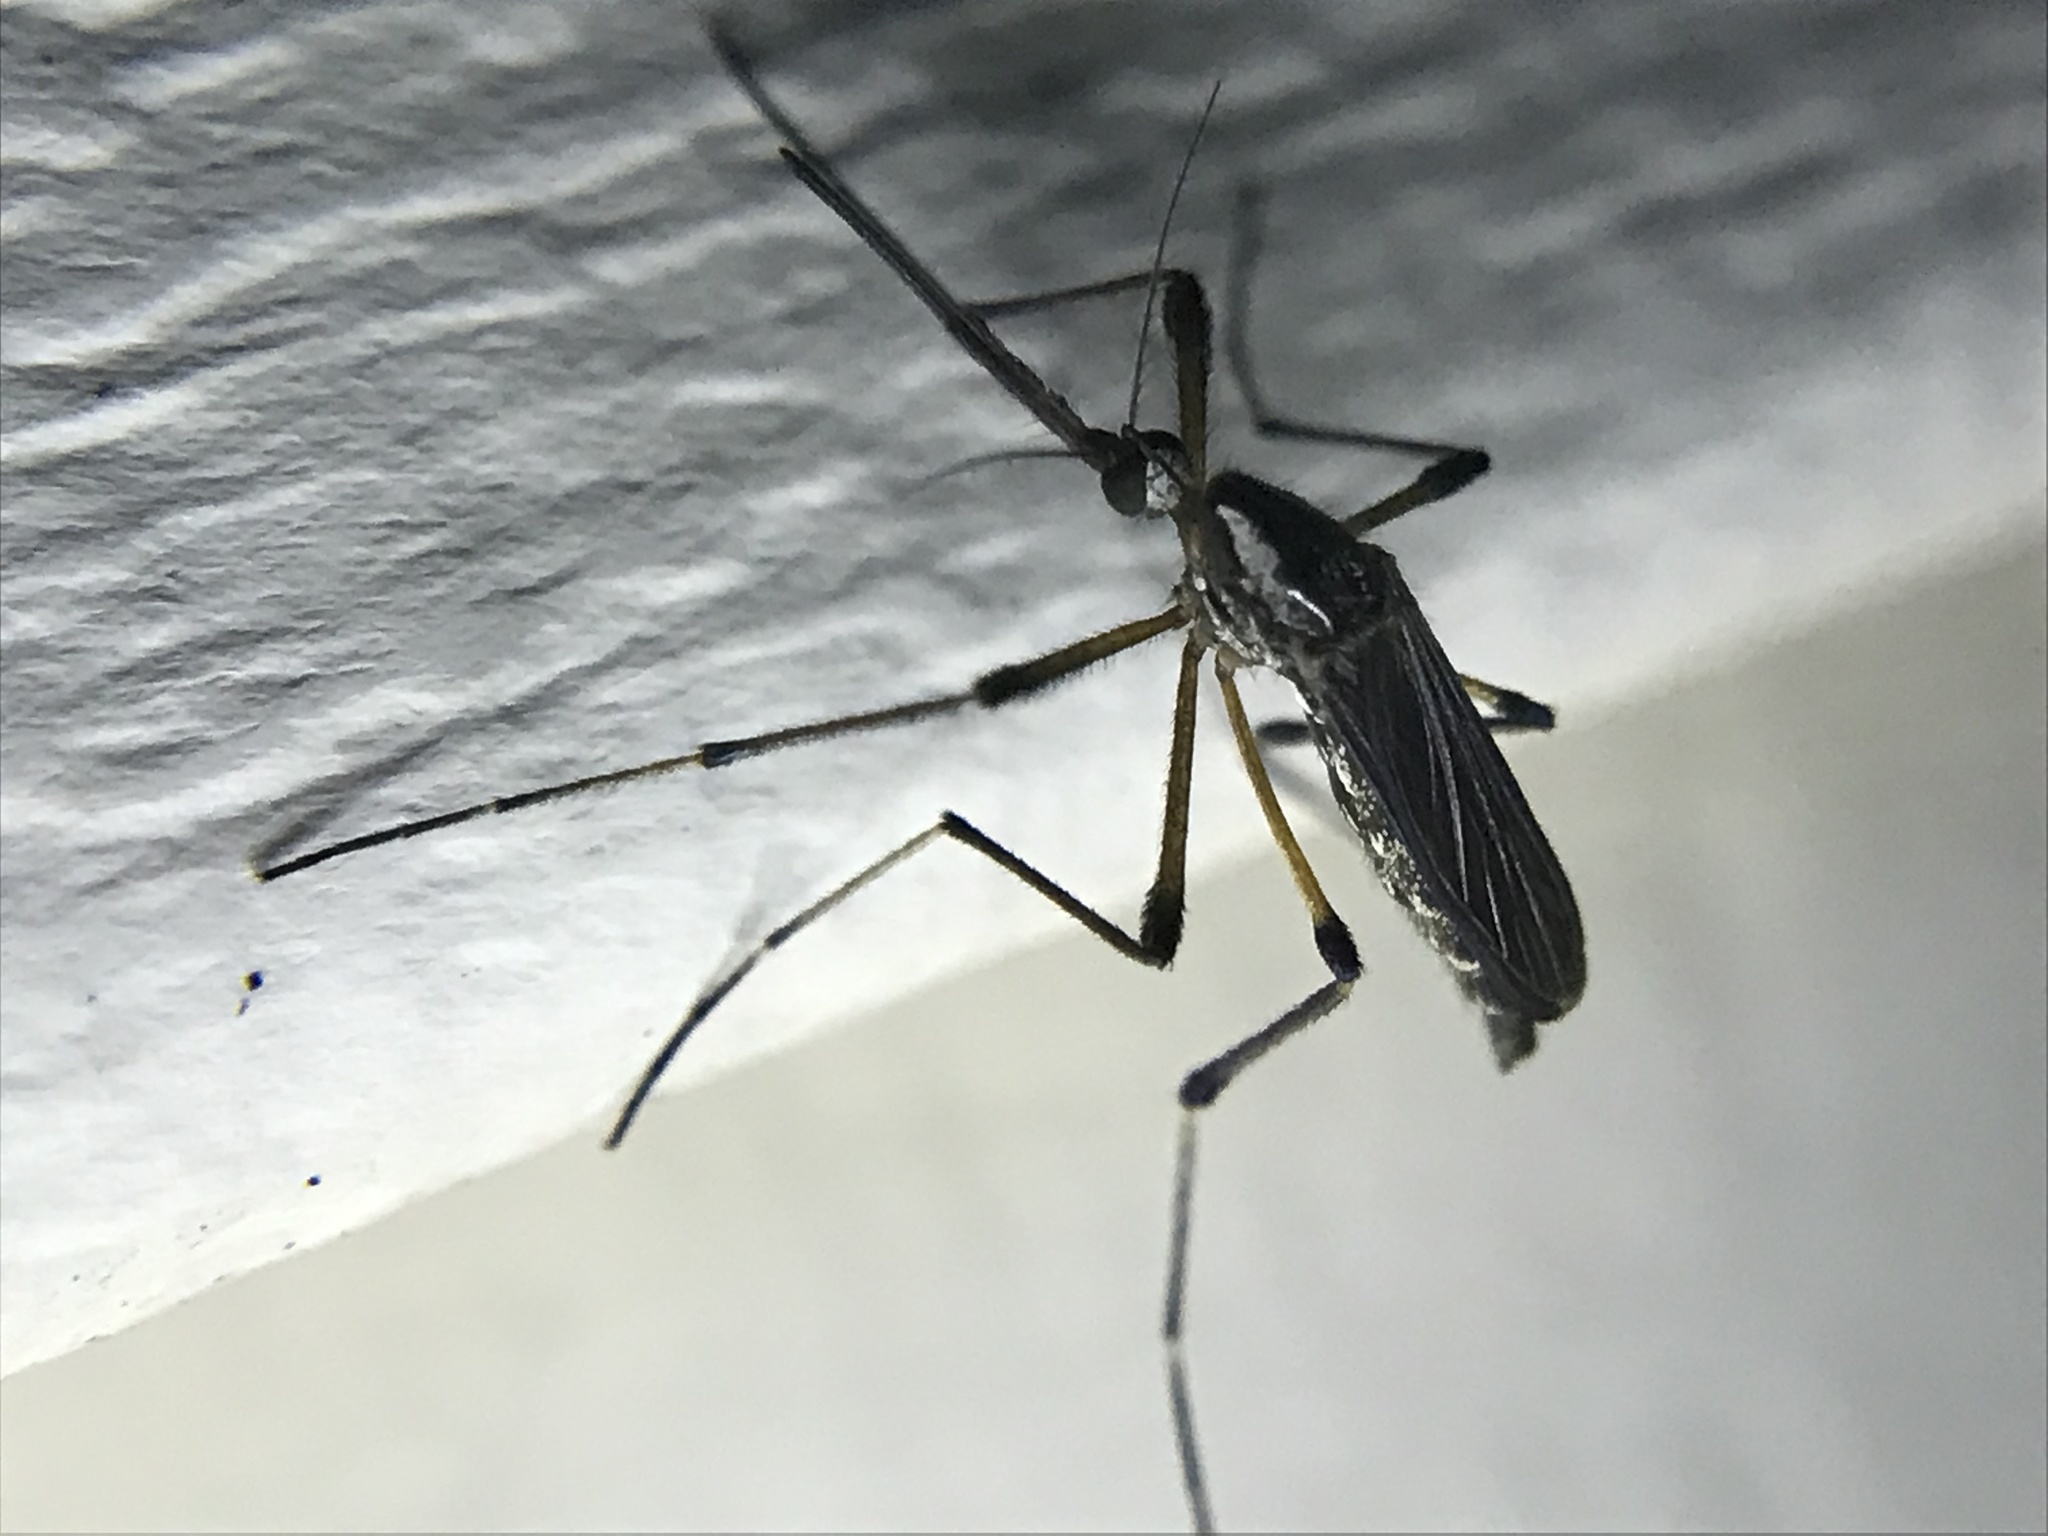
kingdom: Animalia
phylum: Arthropoda
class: Insecta
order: Diptera
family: Culicidae
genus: Psorophora
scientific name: Psorophora howardii
